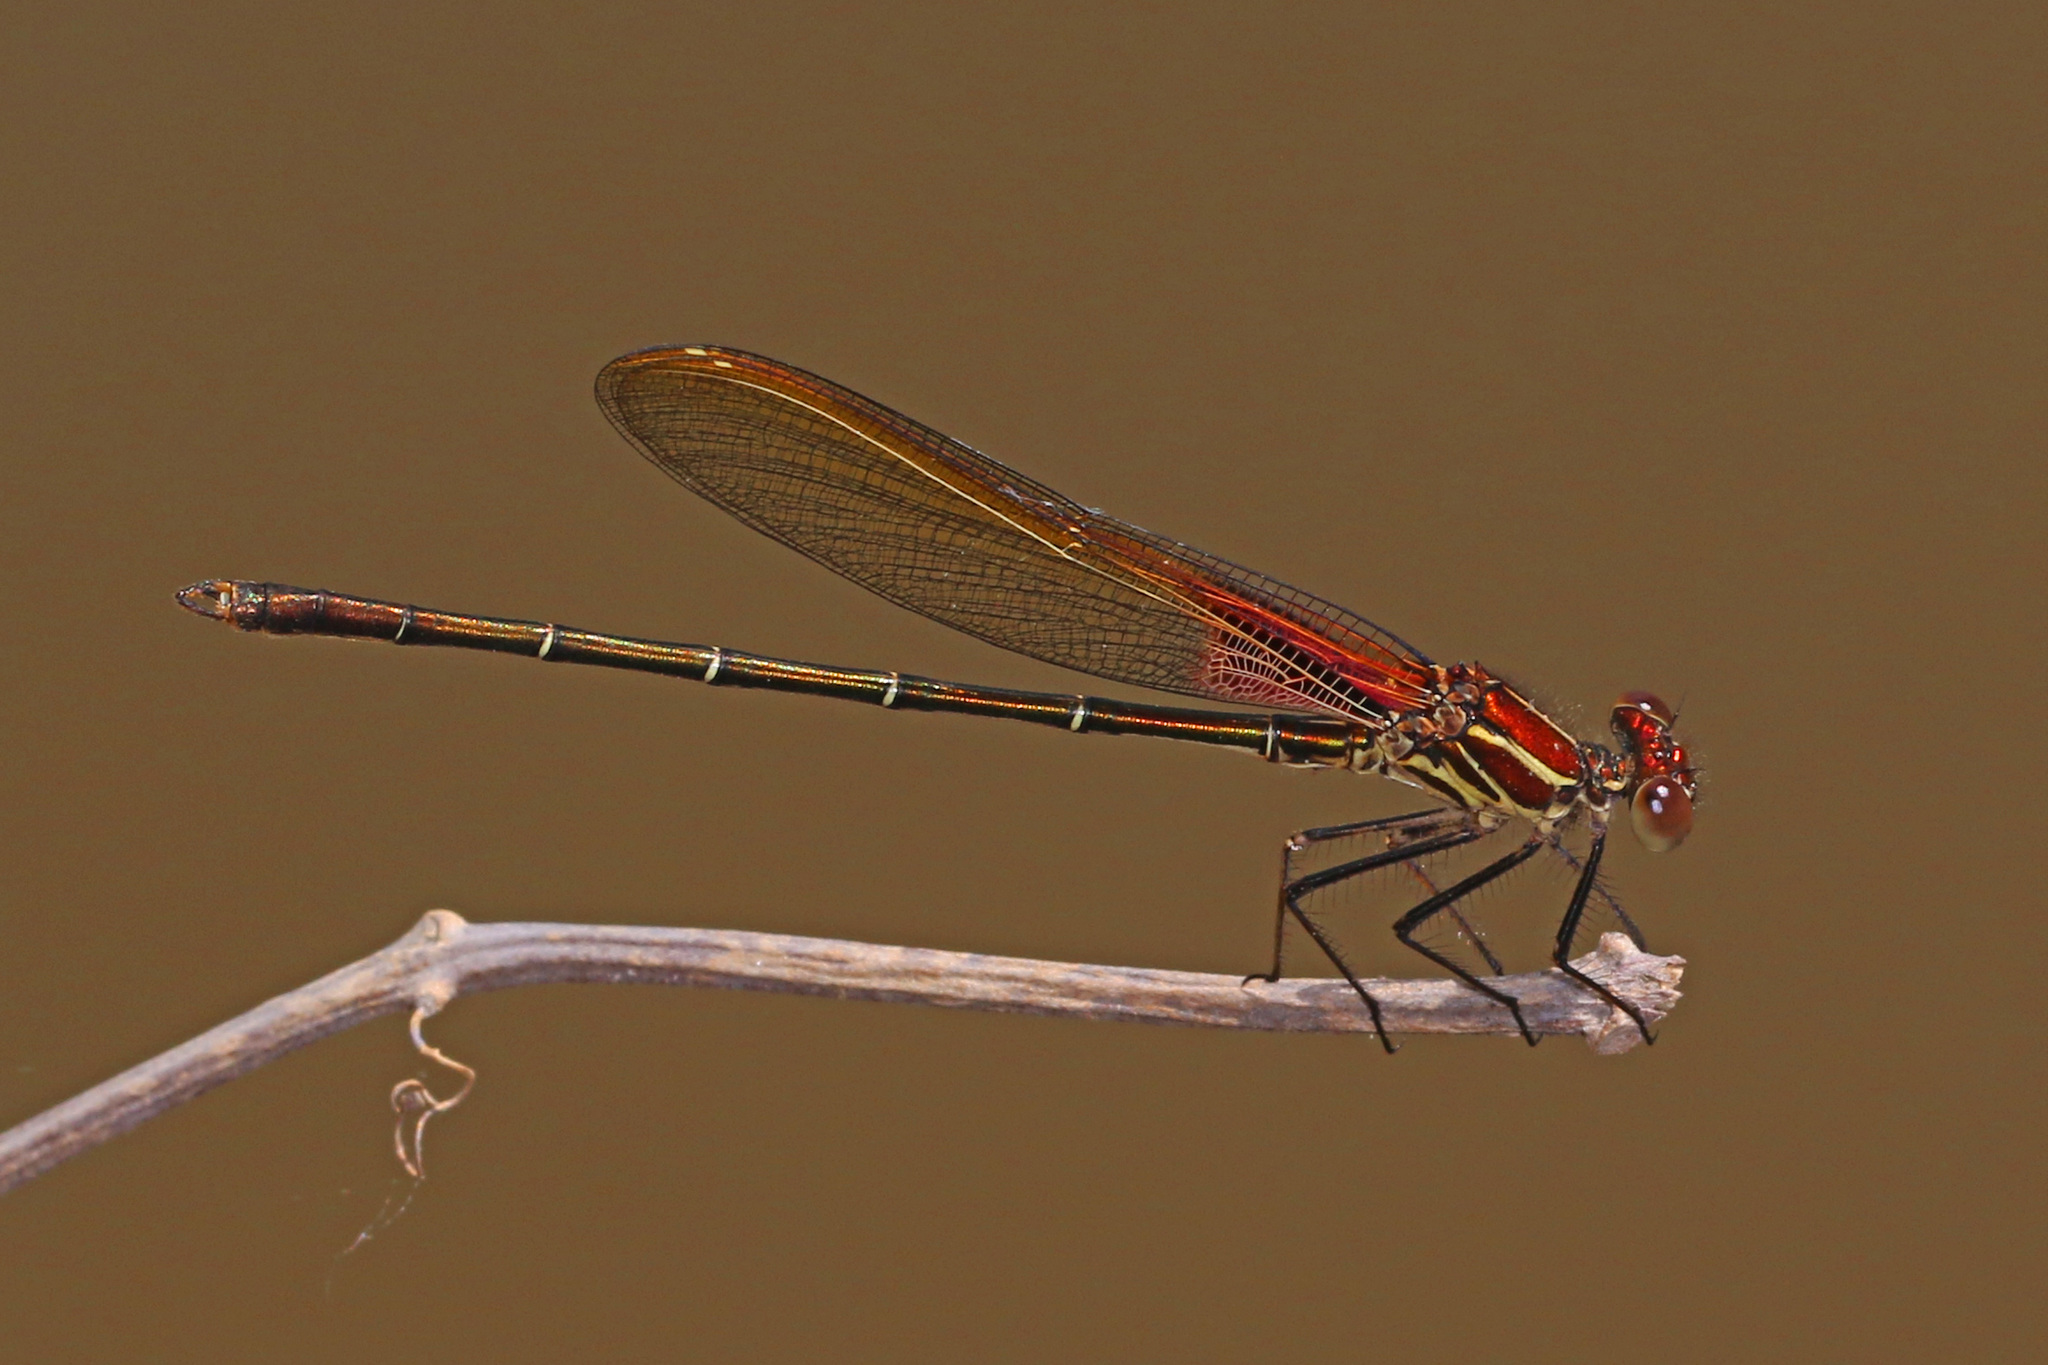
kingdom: Animalia
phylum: Arthropoda
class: Insecta
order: Odonata
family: Calopterygidae
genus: Hetaerina
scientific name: Hetaerina americana
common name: American rubyspot
